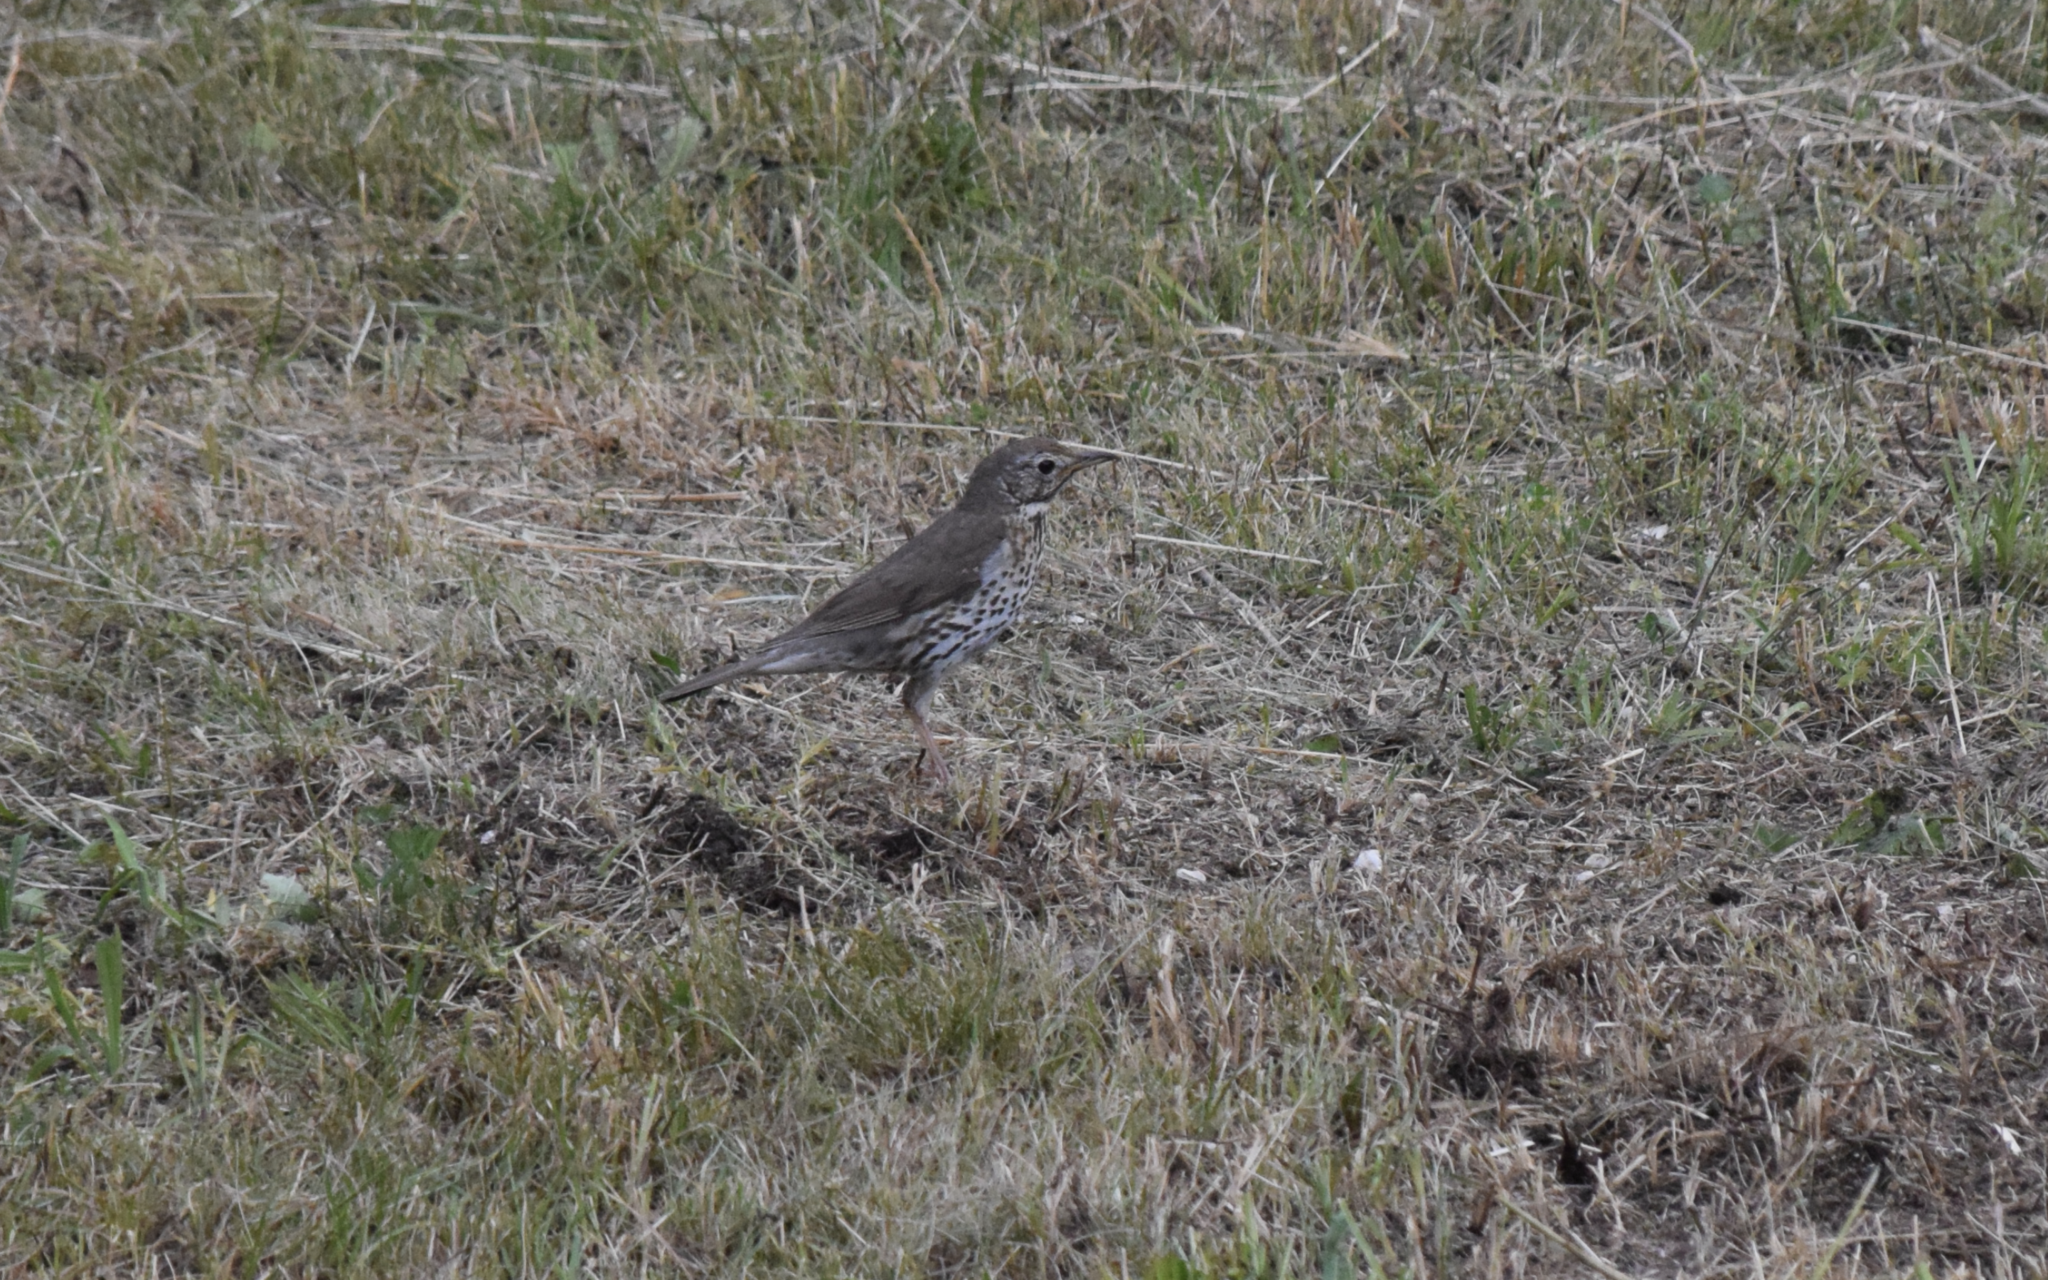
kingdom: Animalia
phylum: Chordata
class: Aves
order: Passeriformes
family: Turdidae
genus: Turdus
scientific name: Turdus philomelos
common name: Song thrush
